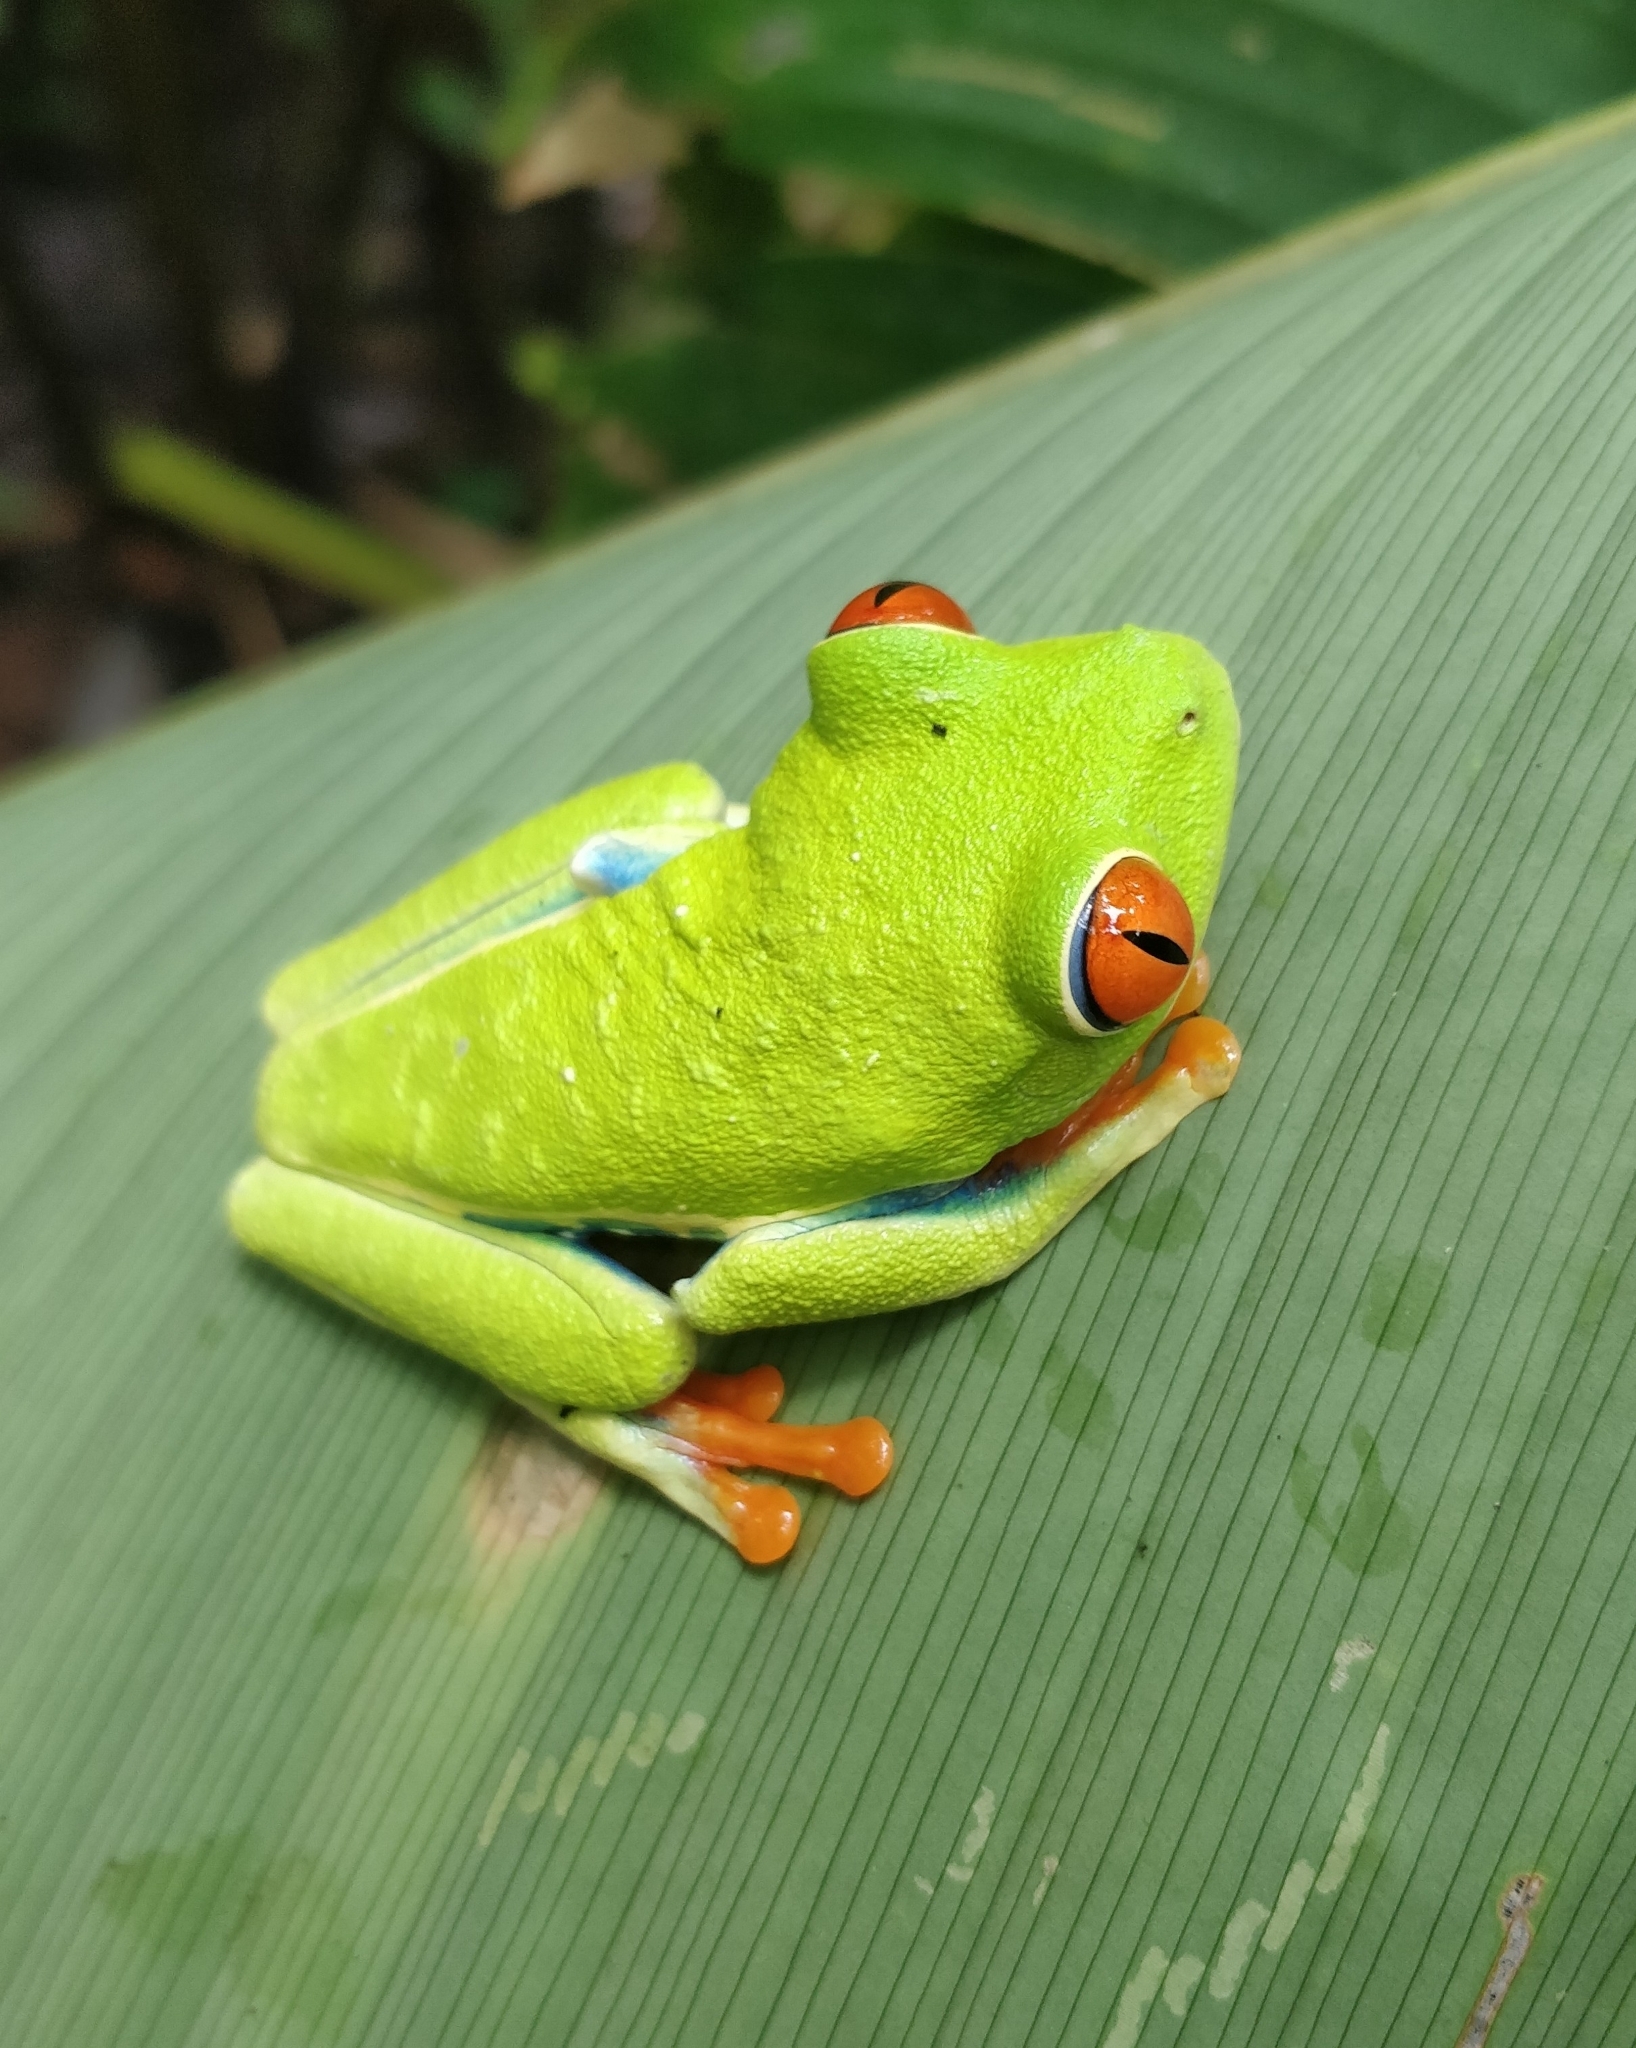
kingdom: Animalia
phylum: Chordata
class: Amphibia
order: Anura
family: Phyllomedusidae
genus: Agalychnis
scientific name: Agalychnis callidryas
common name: Red-eyed treefrog
